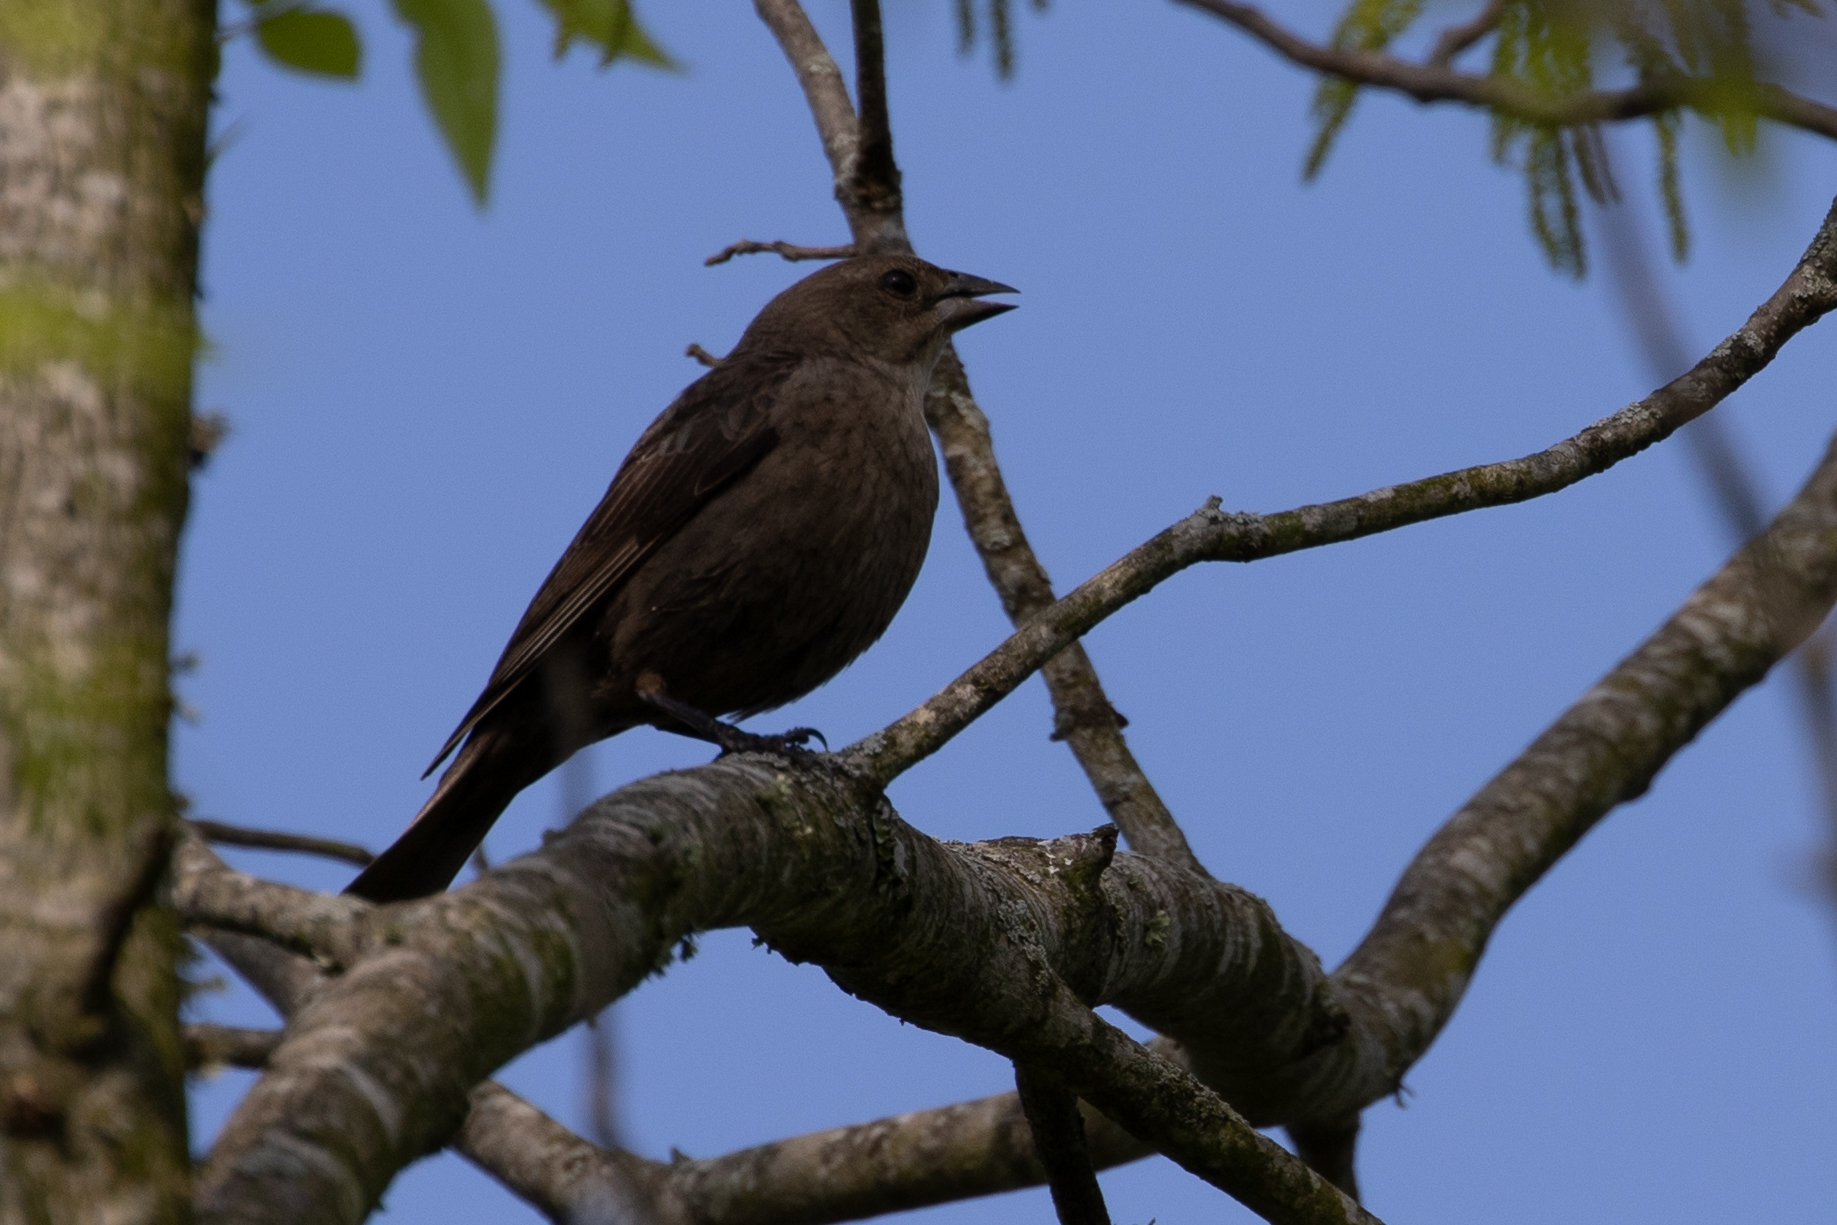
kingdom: Animalia
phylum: Chordata
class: Aves
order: Passeriformes
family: Icteridae
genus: Molothrus
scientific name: Molothrus ater
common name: Brown-headed cowbird
